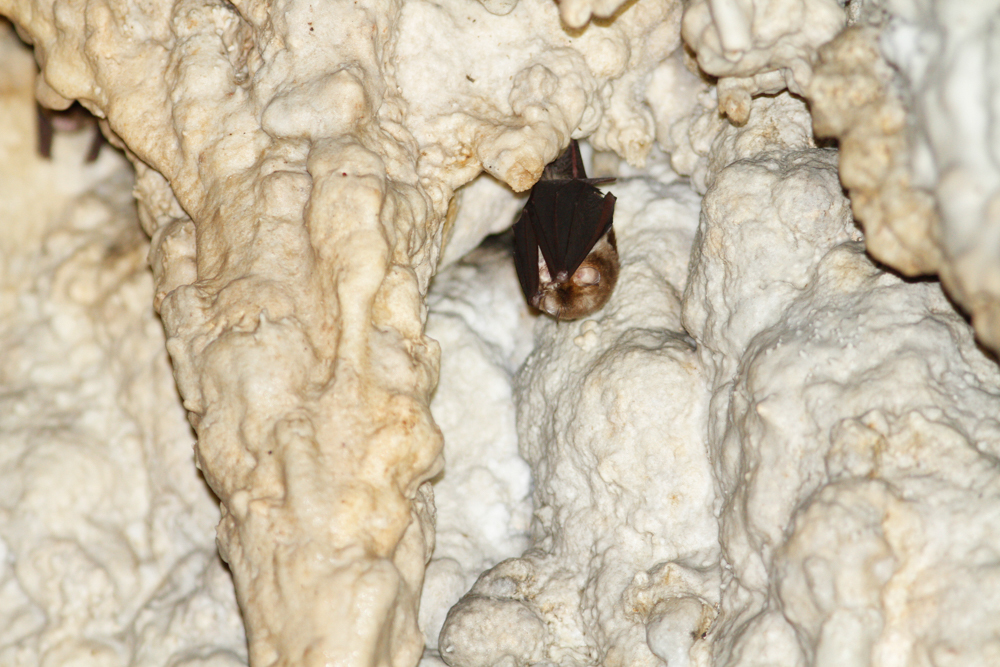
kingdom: Animalia
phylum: Chordata
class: Mammalia
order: Chiroptera
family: Hipposideridae
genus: Aselliscus
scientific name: Aselliscus stoliczkanus
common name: Stoliczka's asian trident bat
